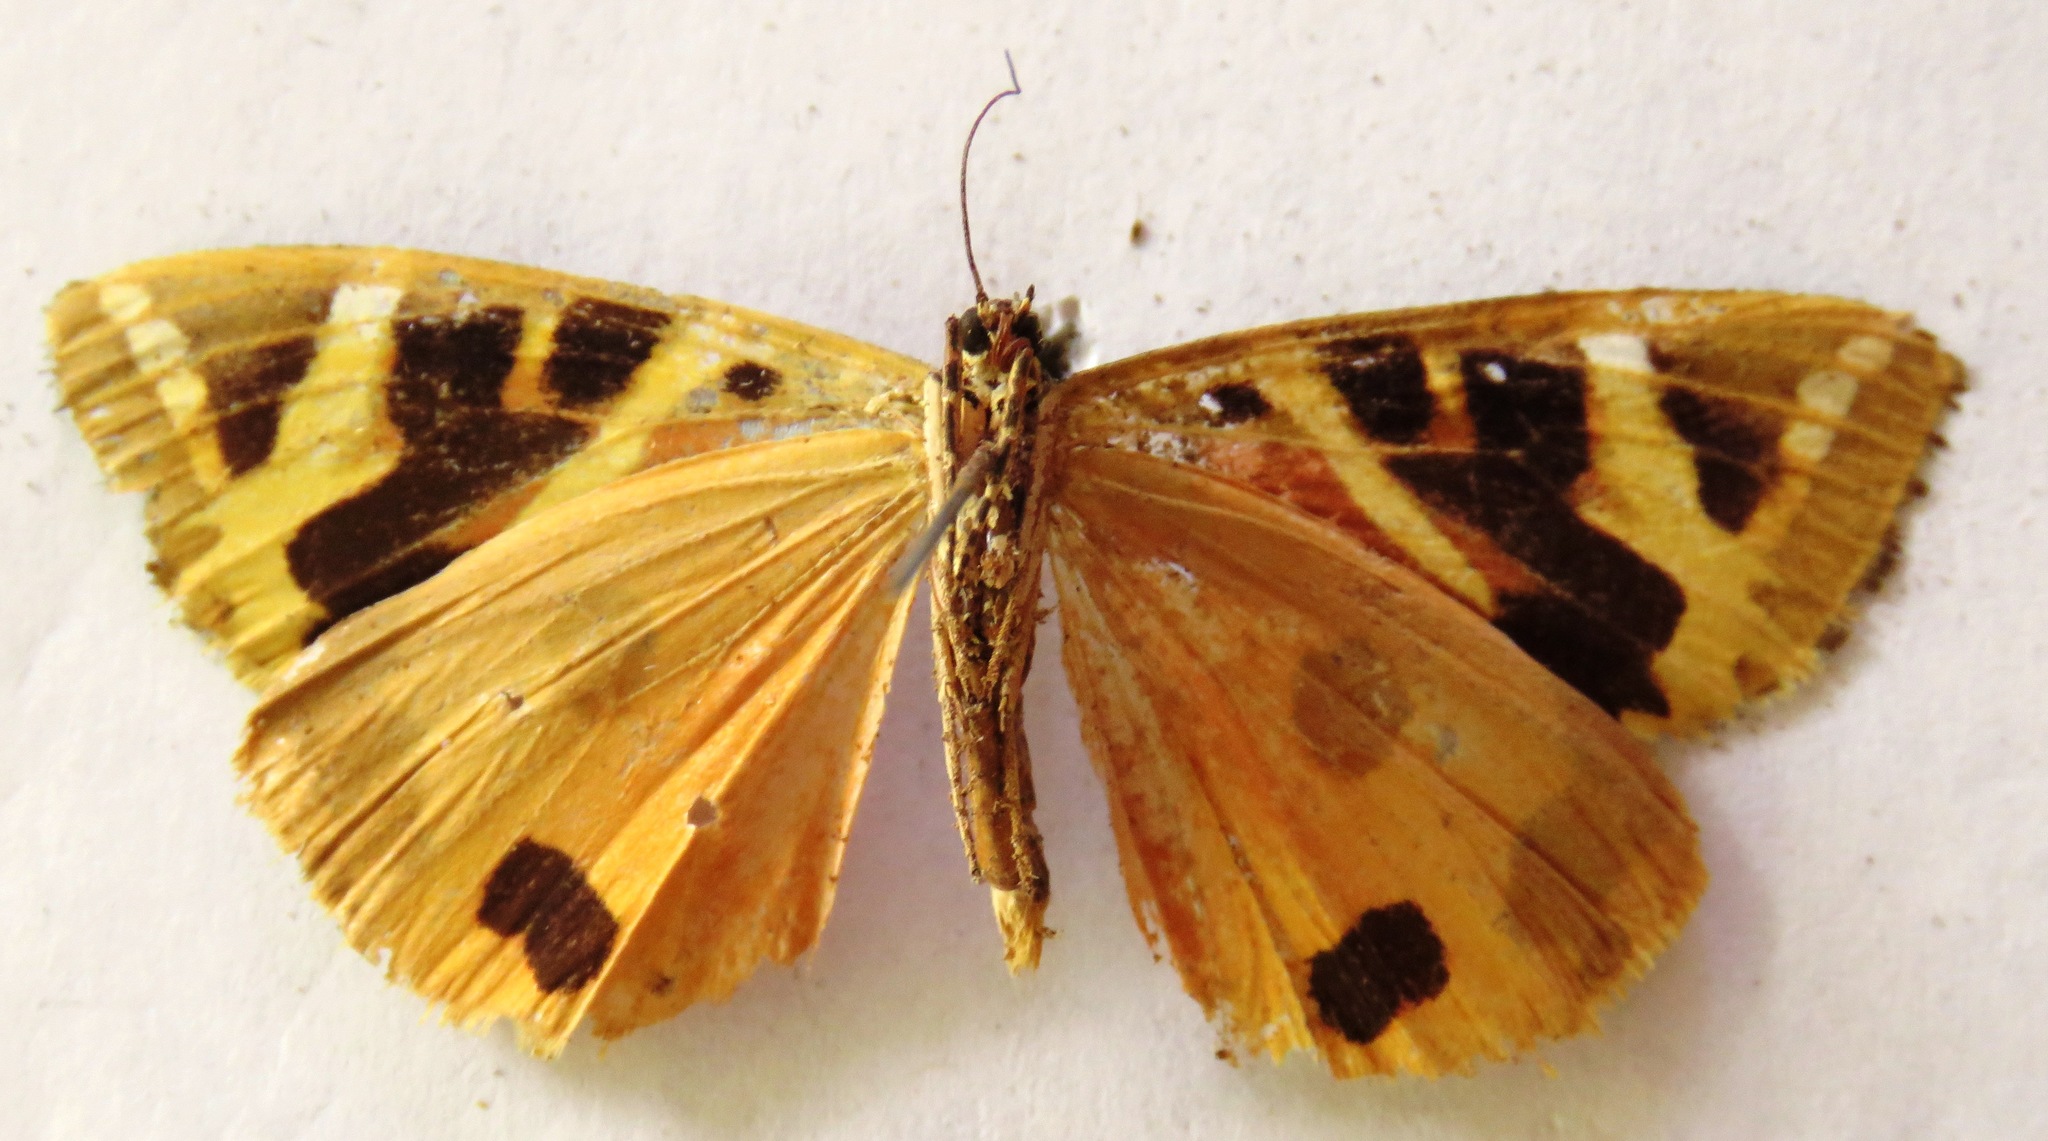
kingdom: Animalia
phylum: Arthropoda
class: Insecta
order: Lepidoptera
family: Erebidae
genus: Euplagia
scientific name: Euplagia quadripunctaria
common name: Jersey tiger
